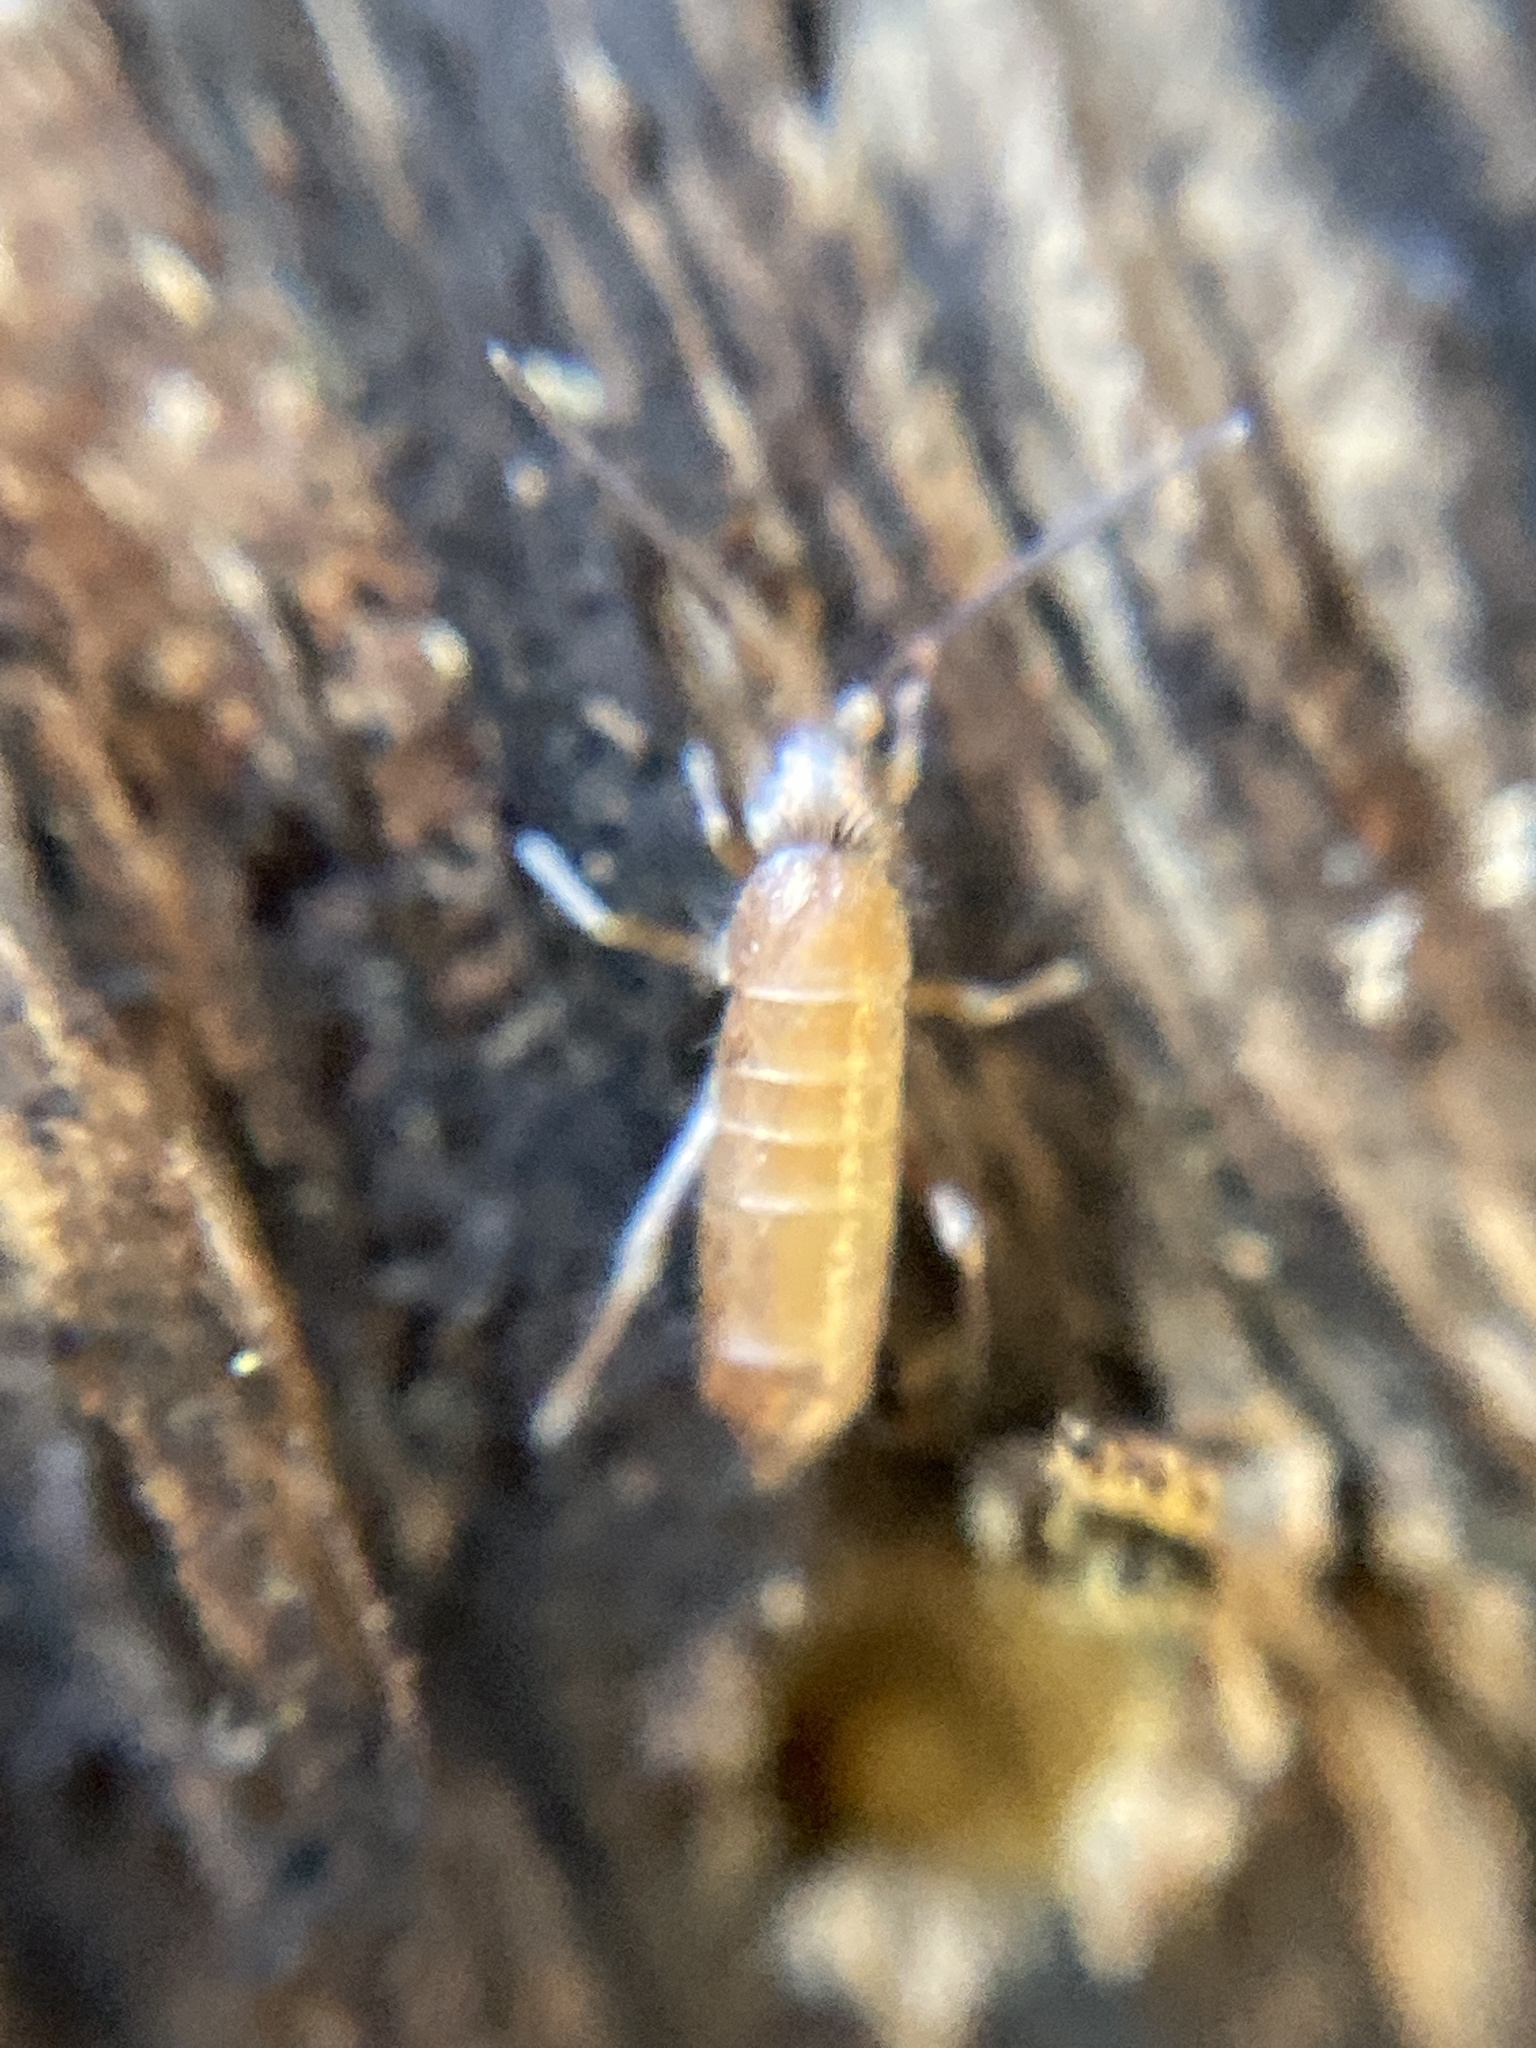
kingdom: Animalia
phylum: Arthropoda
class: Collembola
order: Entomobryomorpha
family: Tomoceridae
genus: Tomocerus
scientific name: Tomocerus vulgaris
